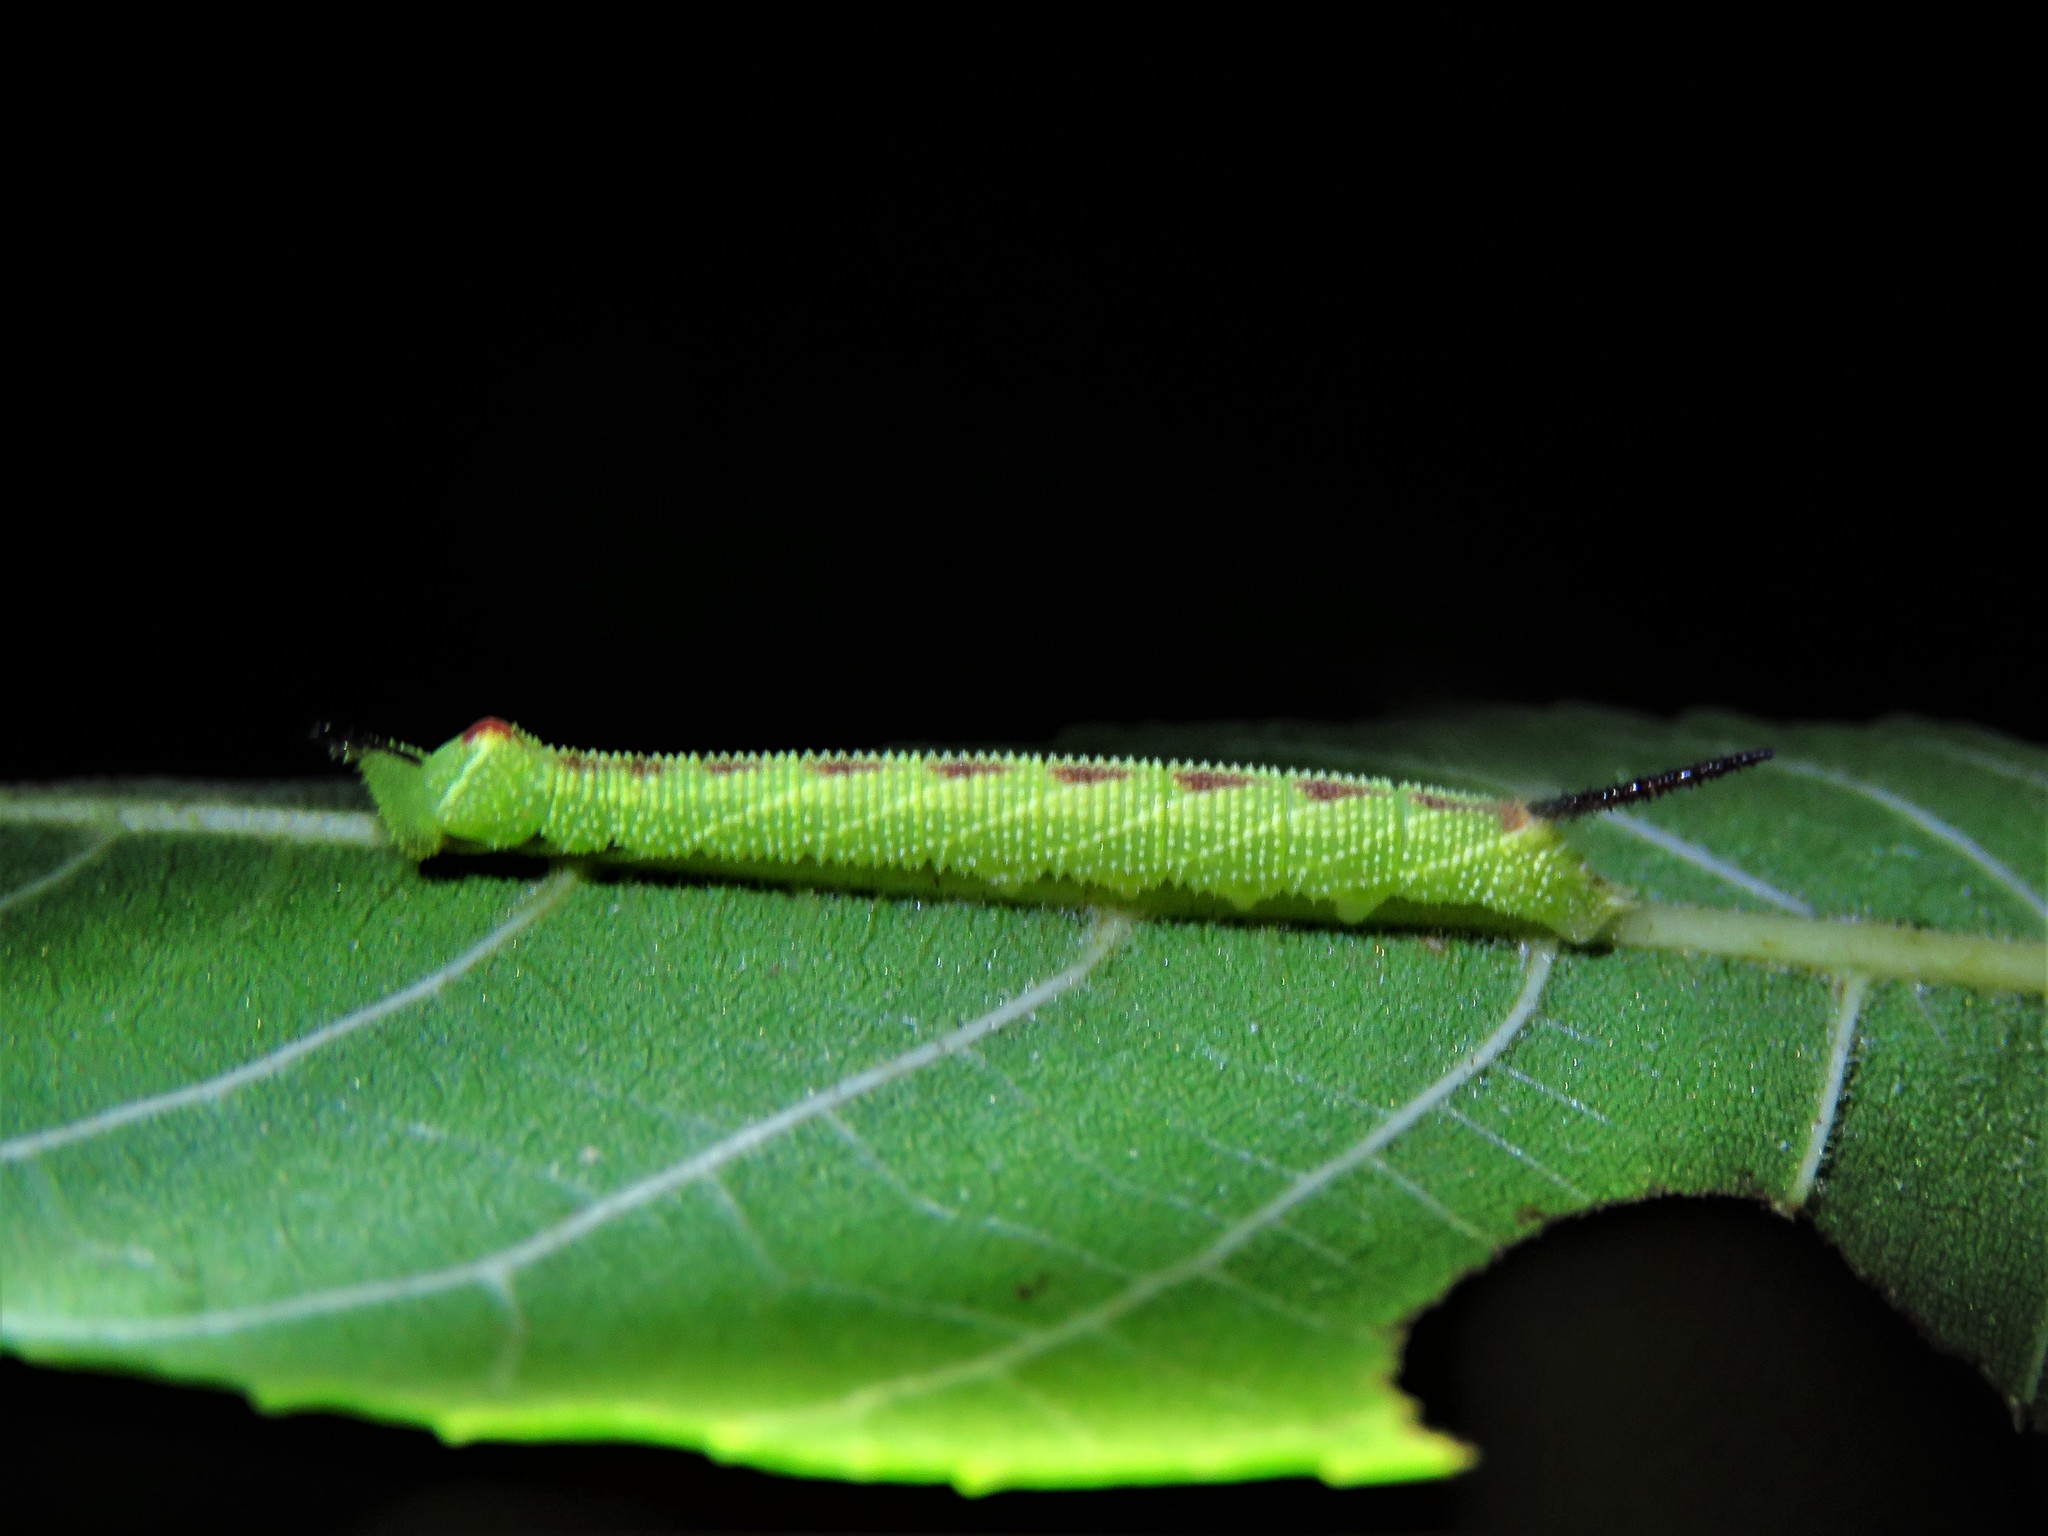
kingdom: Animalia
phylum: Arthropoda
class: Insecta
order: Lepidoptera
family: Sphingidae
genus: Amorpha
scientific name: Amorpha juglandis
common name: Walnut sphinx
